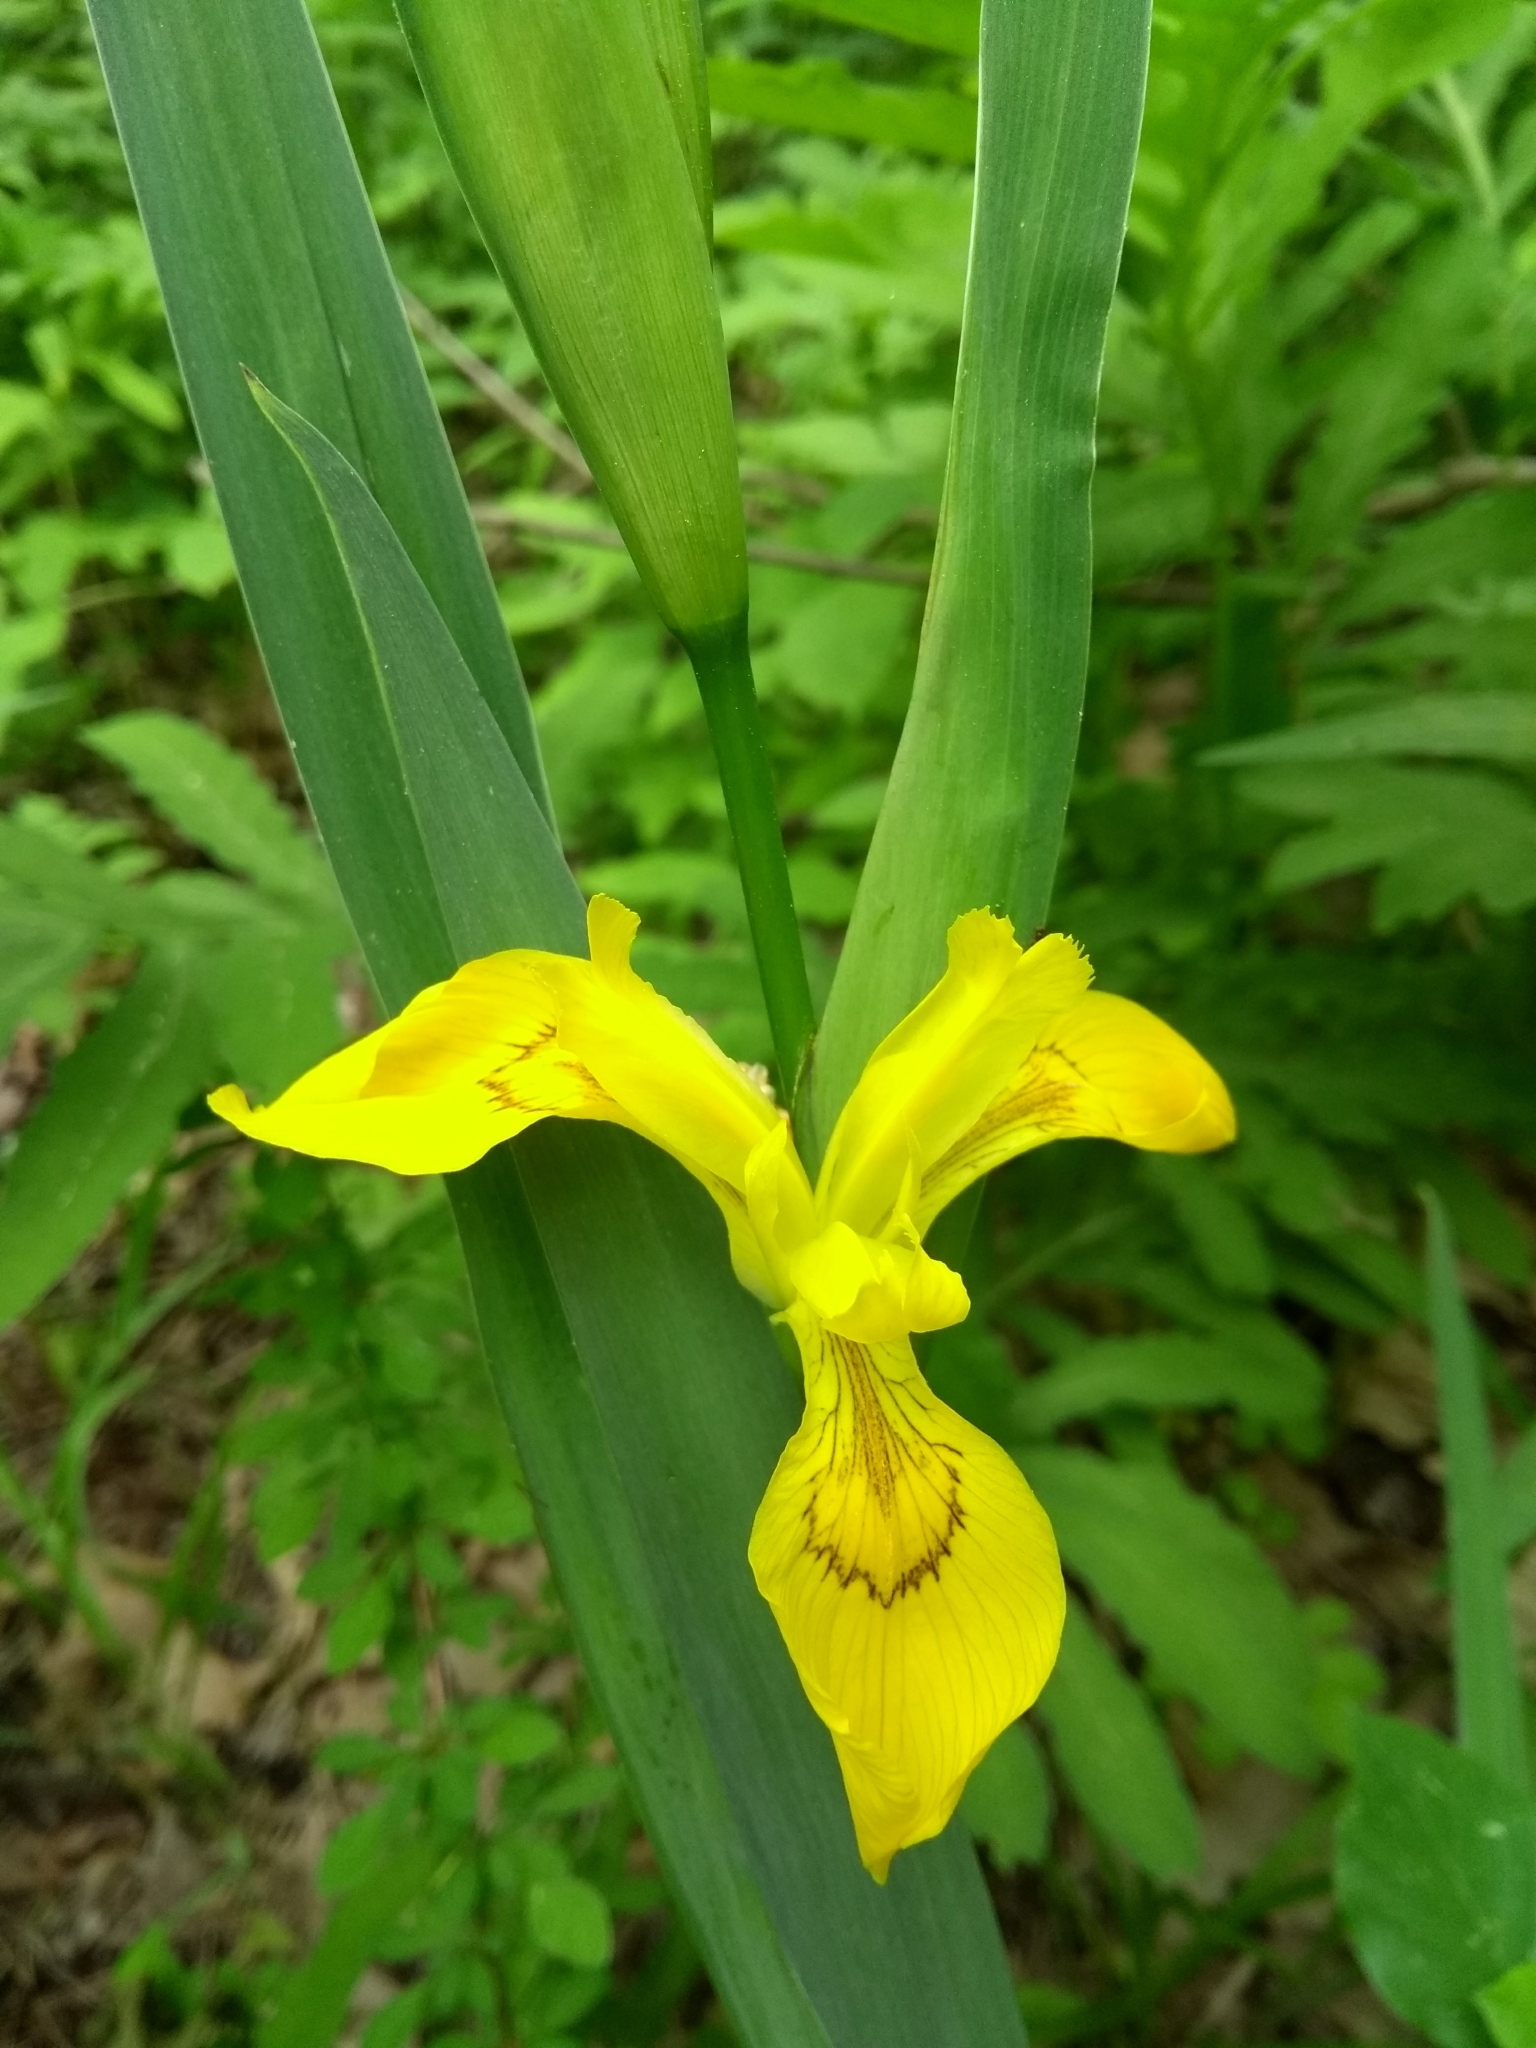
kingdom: Plantae
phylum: Tracheophyta
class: Liliopsida
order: Asparagales
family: Iridaceae
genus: Iris
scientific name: Iris pseudacorus
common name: Yellow flag
